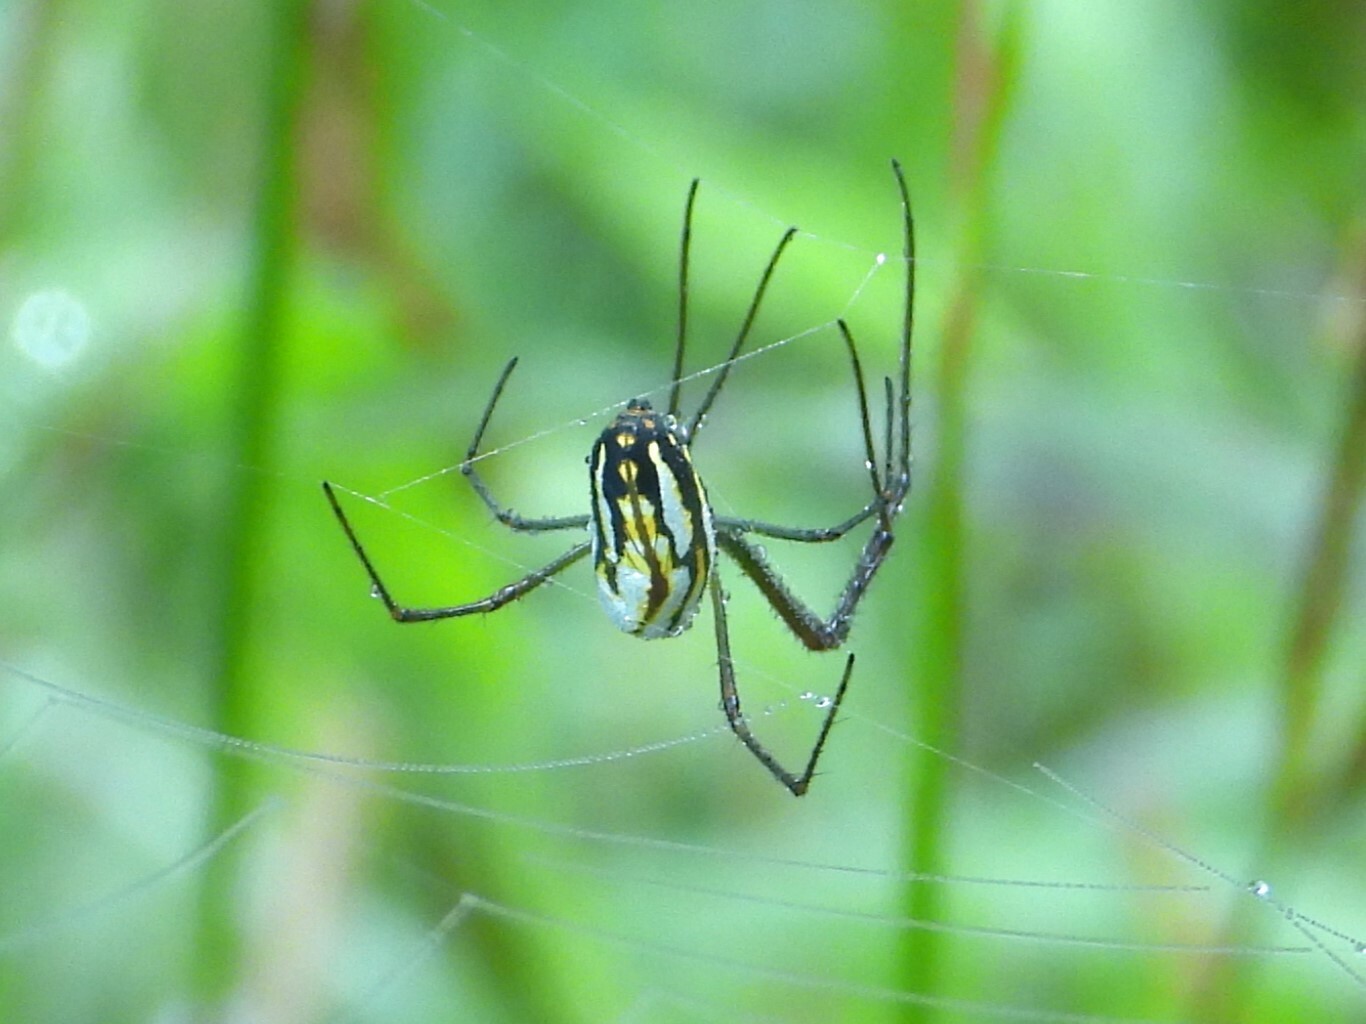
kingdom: Animalia
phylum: Arthropoda
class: Arachnida
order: Araneae
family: Tetragnathidae
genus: Leucauge
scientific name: Leucauge argyra
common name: Longjawed orb weavers
